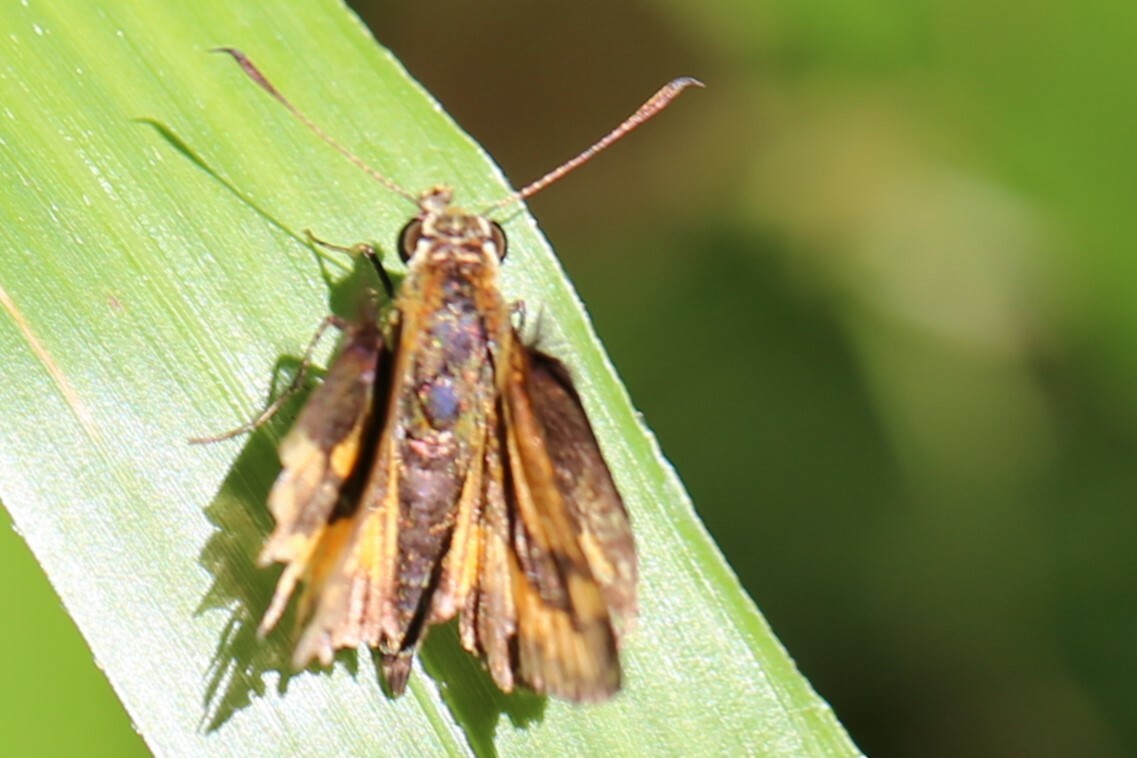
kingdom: Animalia
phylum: Arthropoda
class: Insecta
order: Lepidoptera
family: Hesperiidae
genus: Suniana
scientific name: Suniana sunias
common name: Wide-brand grass-dart
